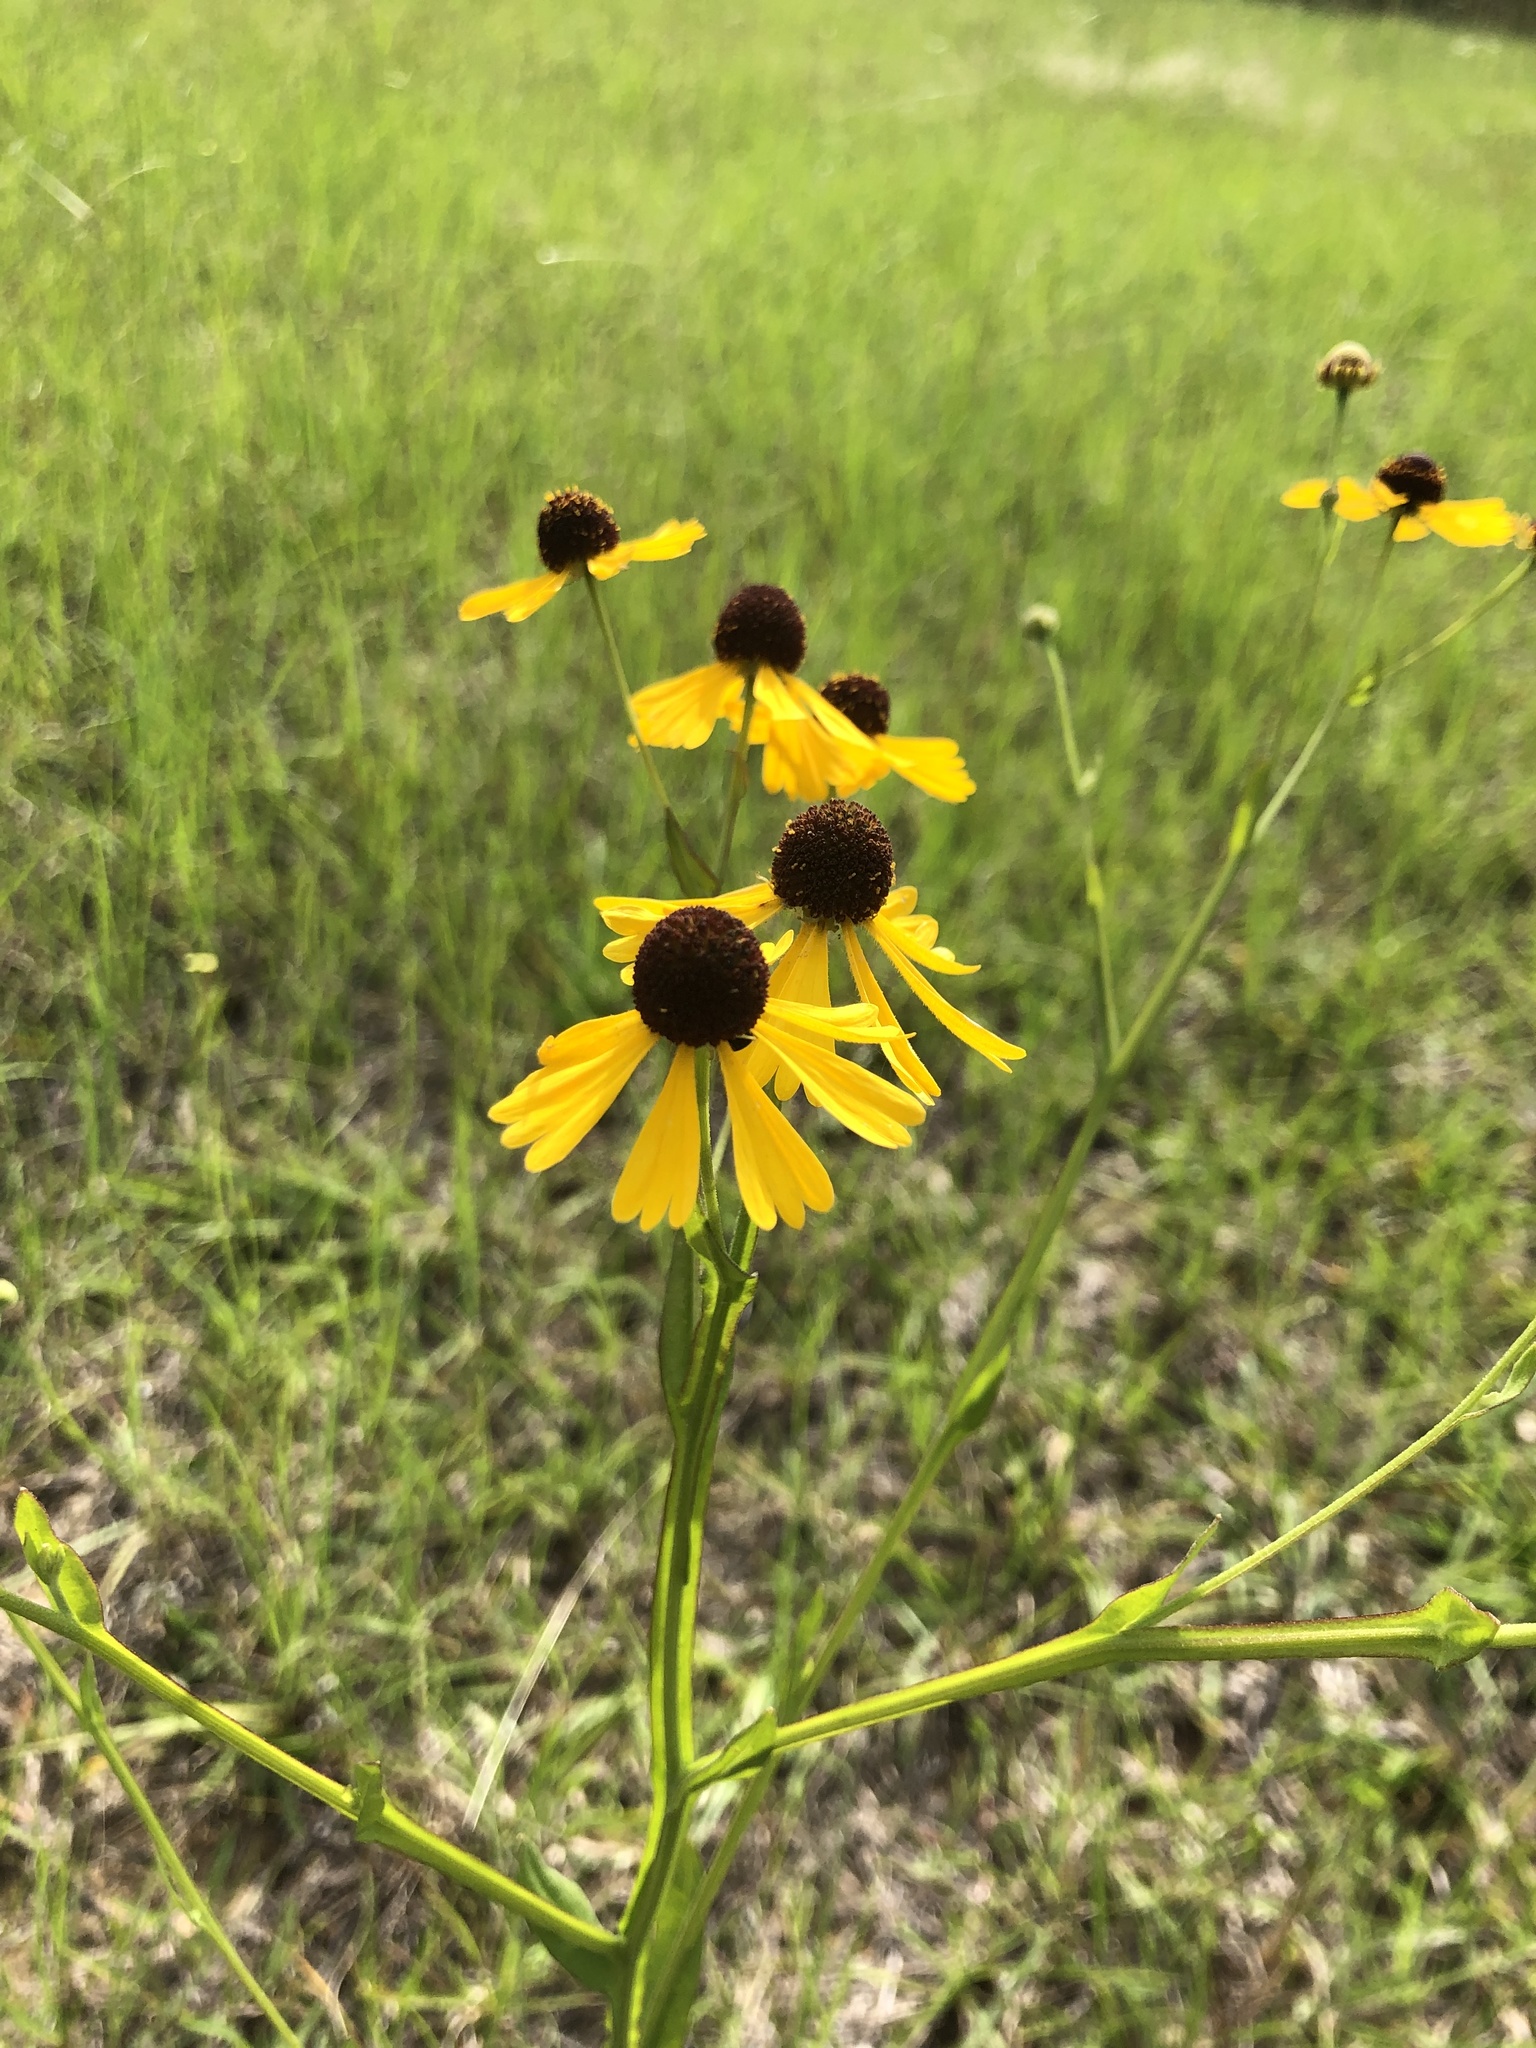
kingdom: Plantae
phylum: Tracheophyta
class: Magnoliopsida
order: Asterales
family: Asteraceae
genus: Helenium
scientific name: Helenium flexuosum
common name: Naked-flowered sneezeweed
